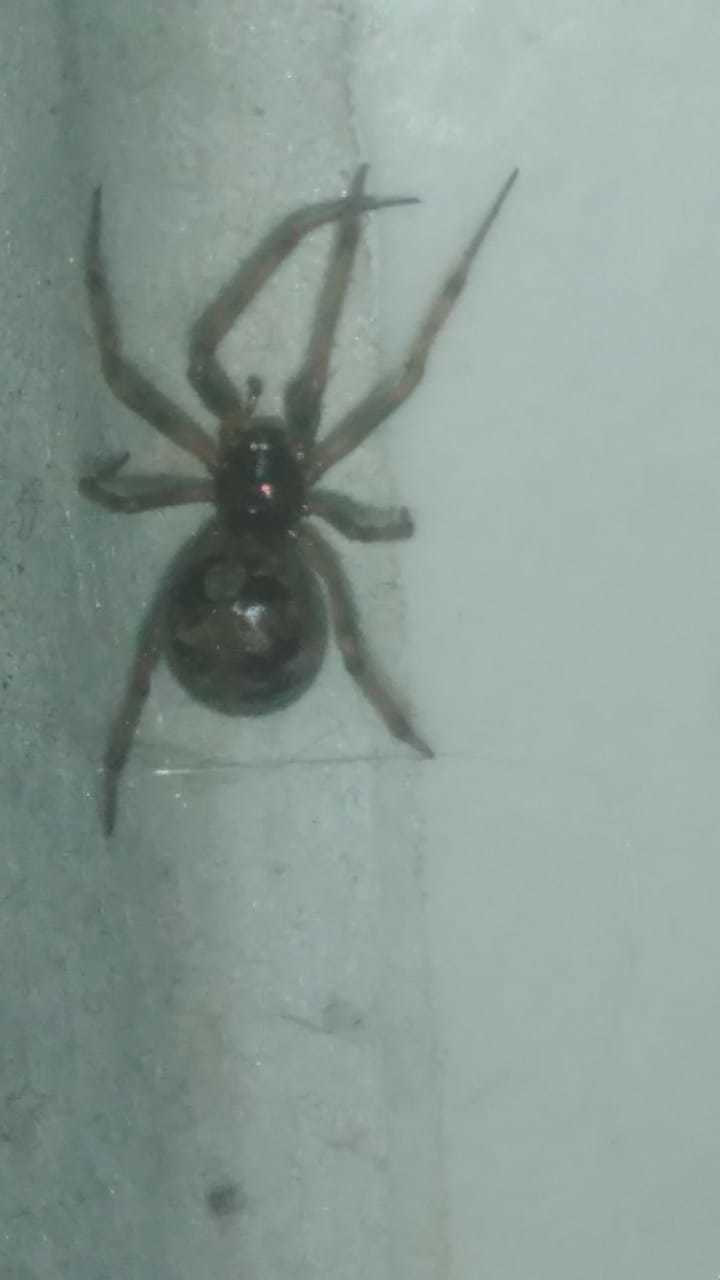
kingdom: Animalia
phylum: Arthropoda
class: Arachnida
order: Araneae
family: Theridiidae
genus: Steatoda
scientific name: Steatoda triangulosa
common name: Triangulate bud spider
